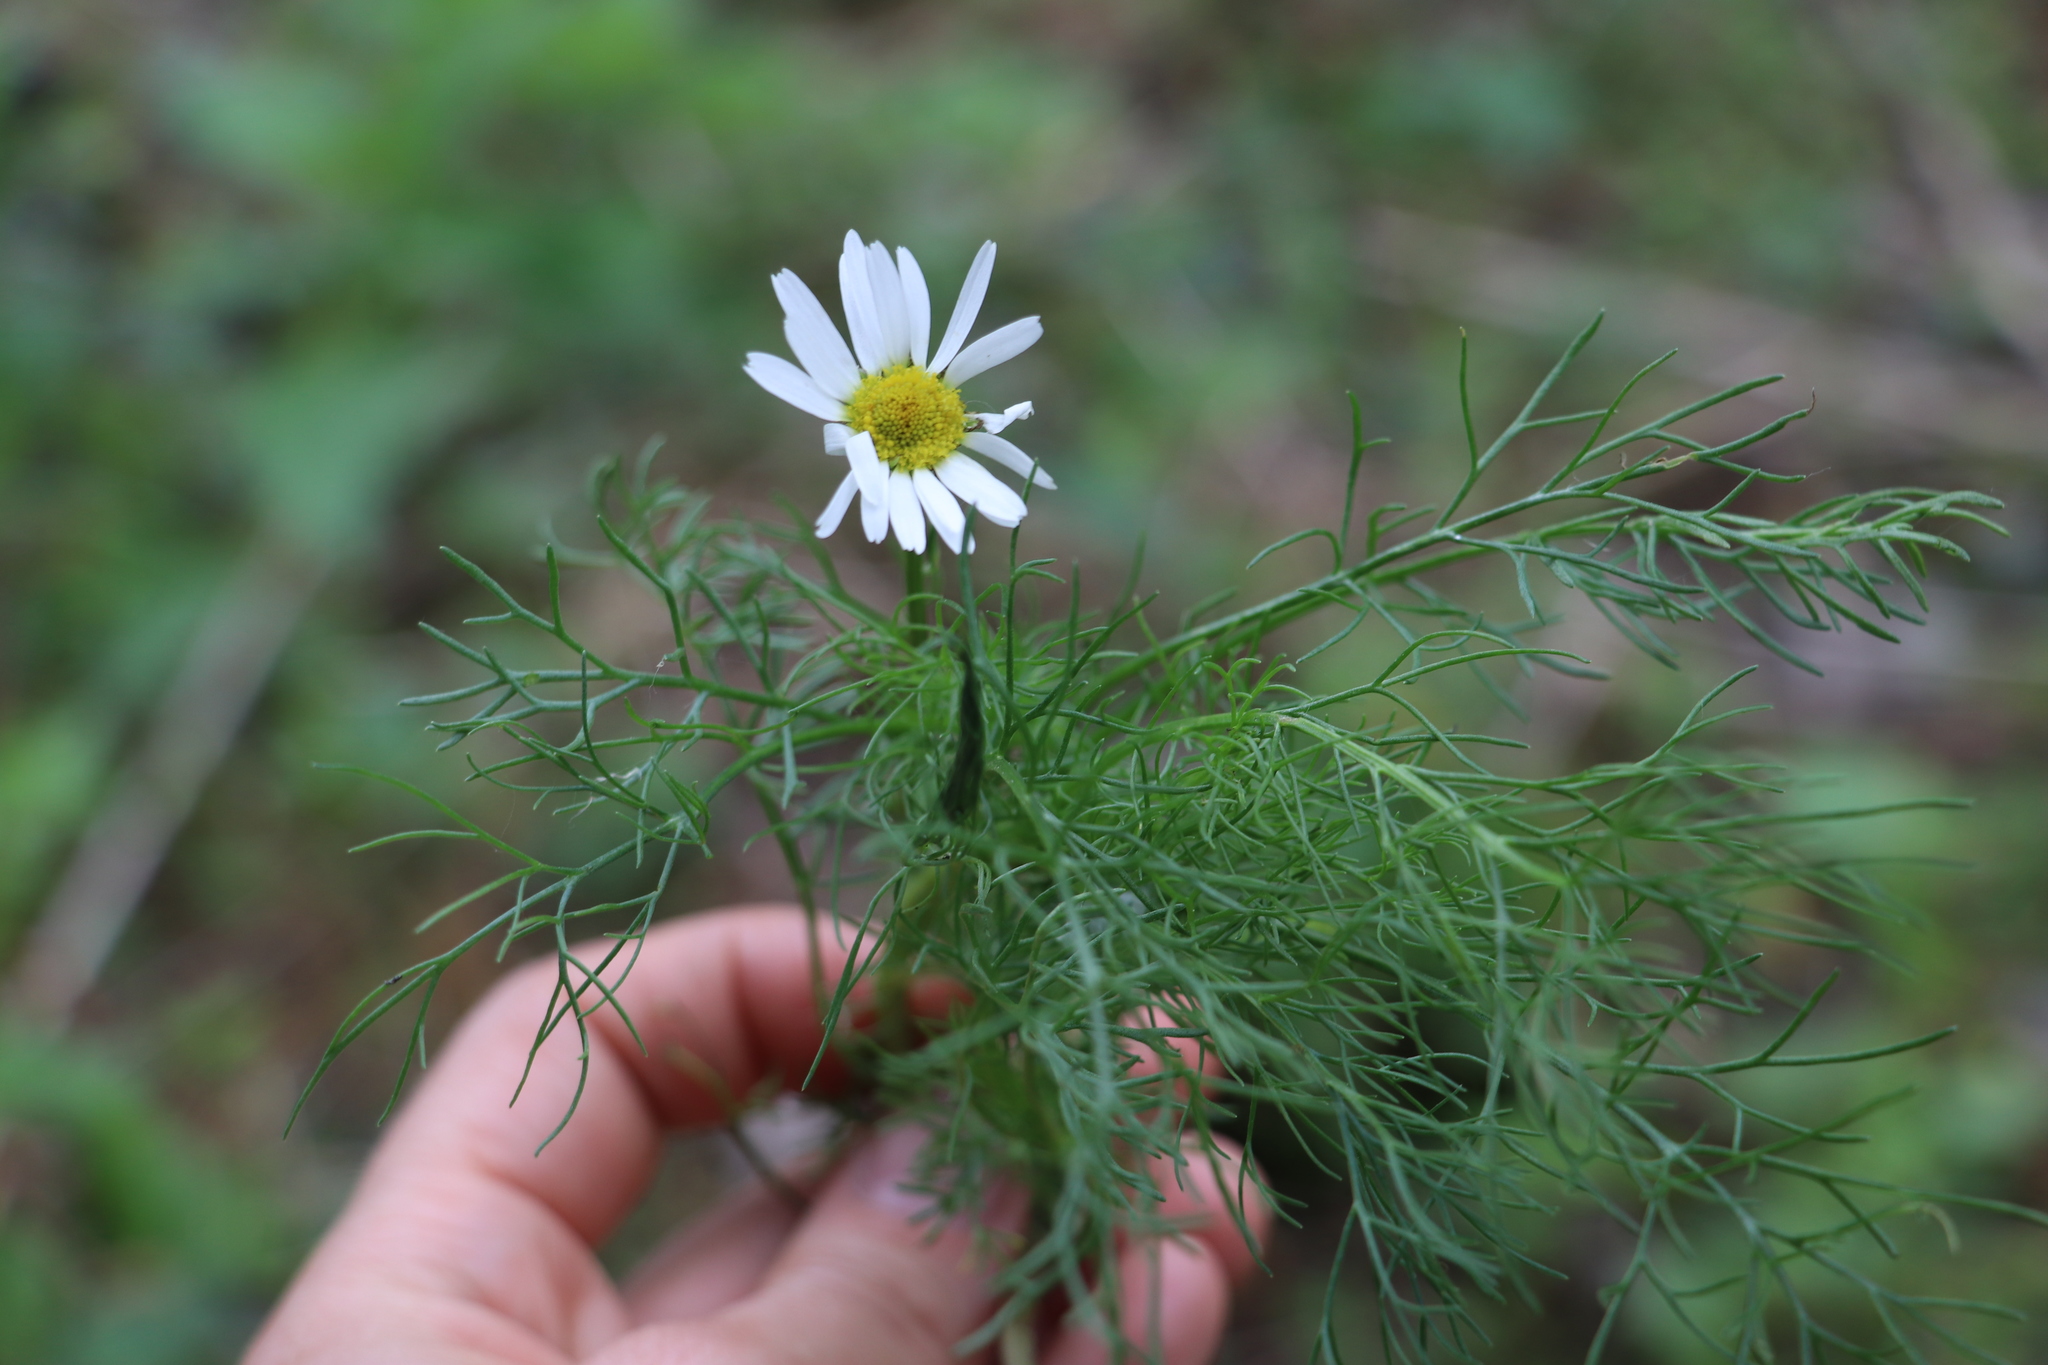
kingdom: Plantae
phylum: Tracheophyta
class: Magnoliopsida
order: Asterales
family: Asteraceae
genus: Tripleurospermum
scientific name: Tripleurospermum inodorum
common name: Scentless mayweed
